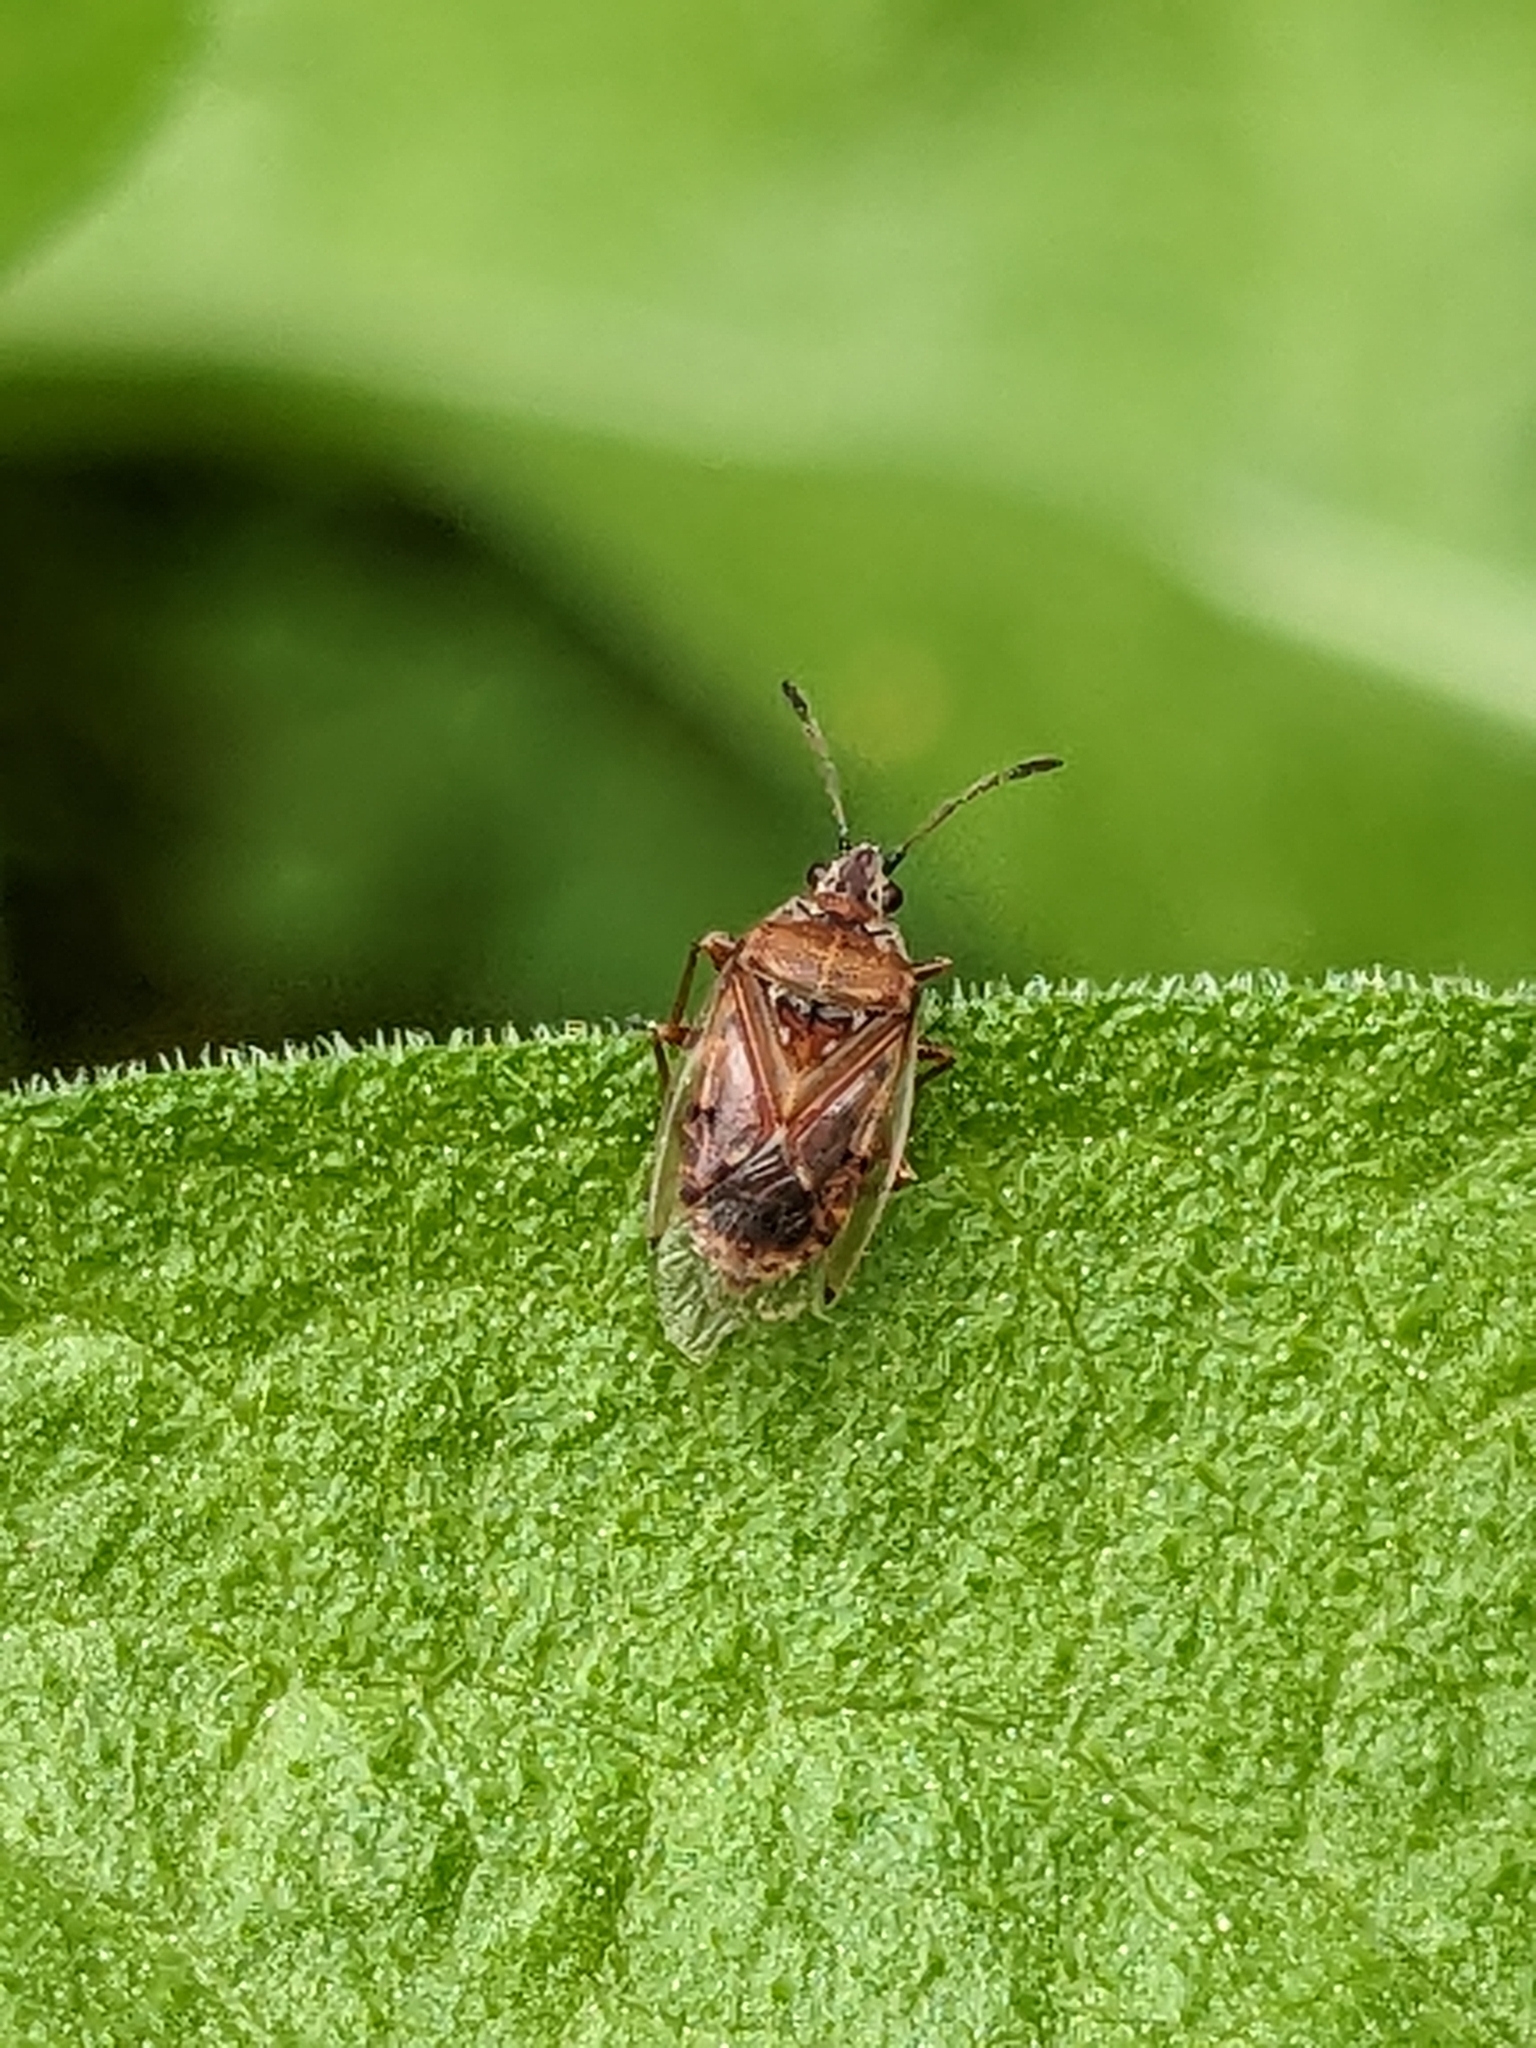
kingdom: Animalia
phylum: Arthropoda
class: Insecta
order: Hemiptera
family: Lygaeidae
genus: Kleidocerys
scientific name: Kleidocerys resedae
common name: Birch catkin bug
